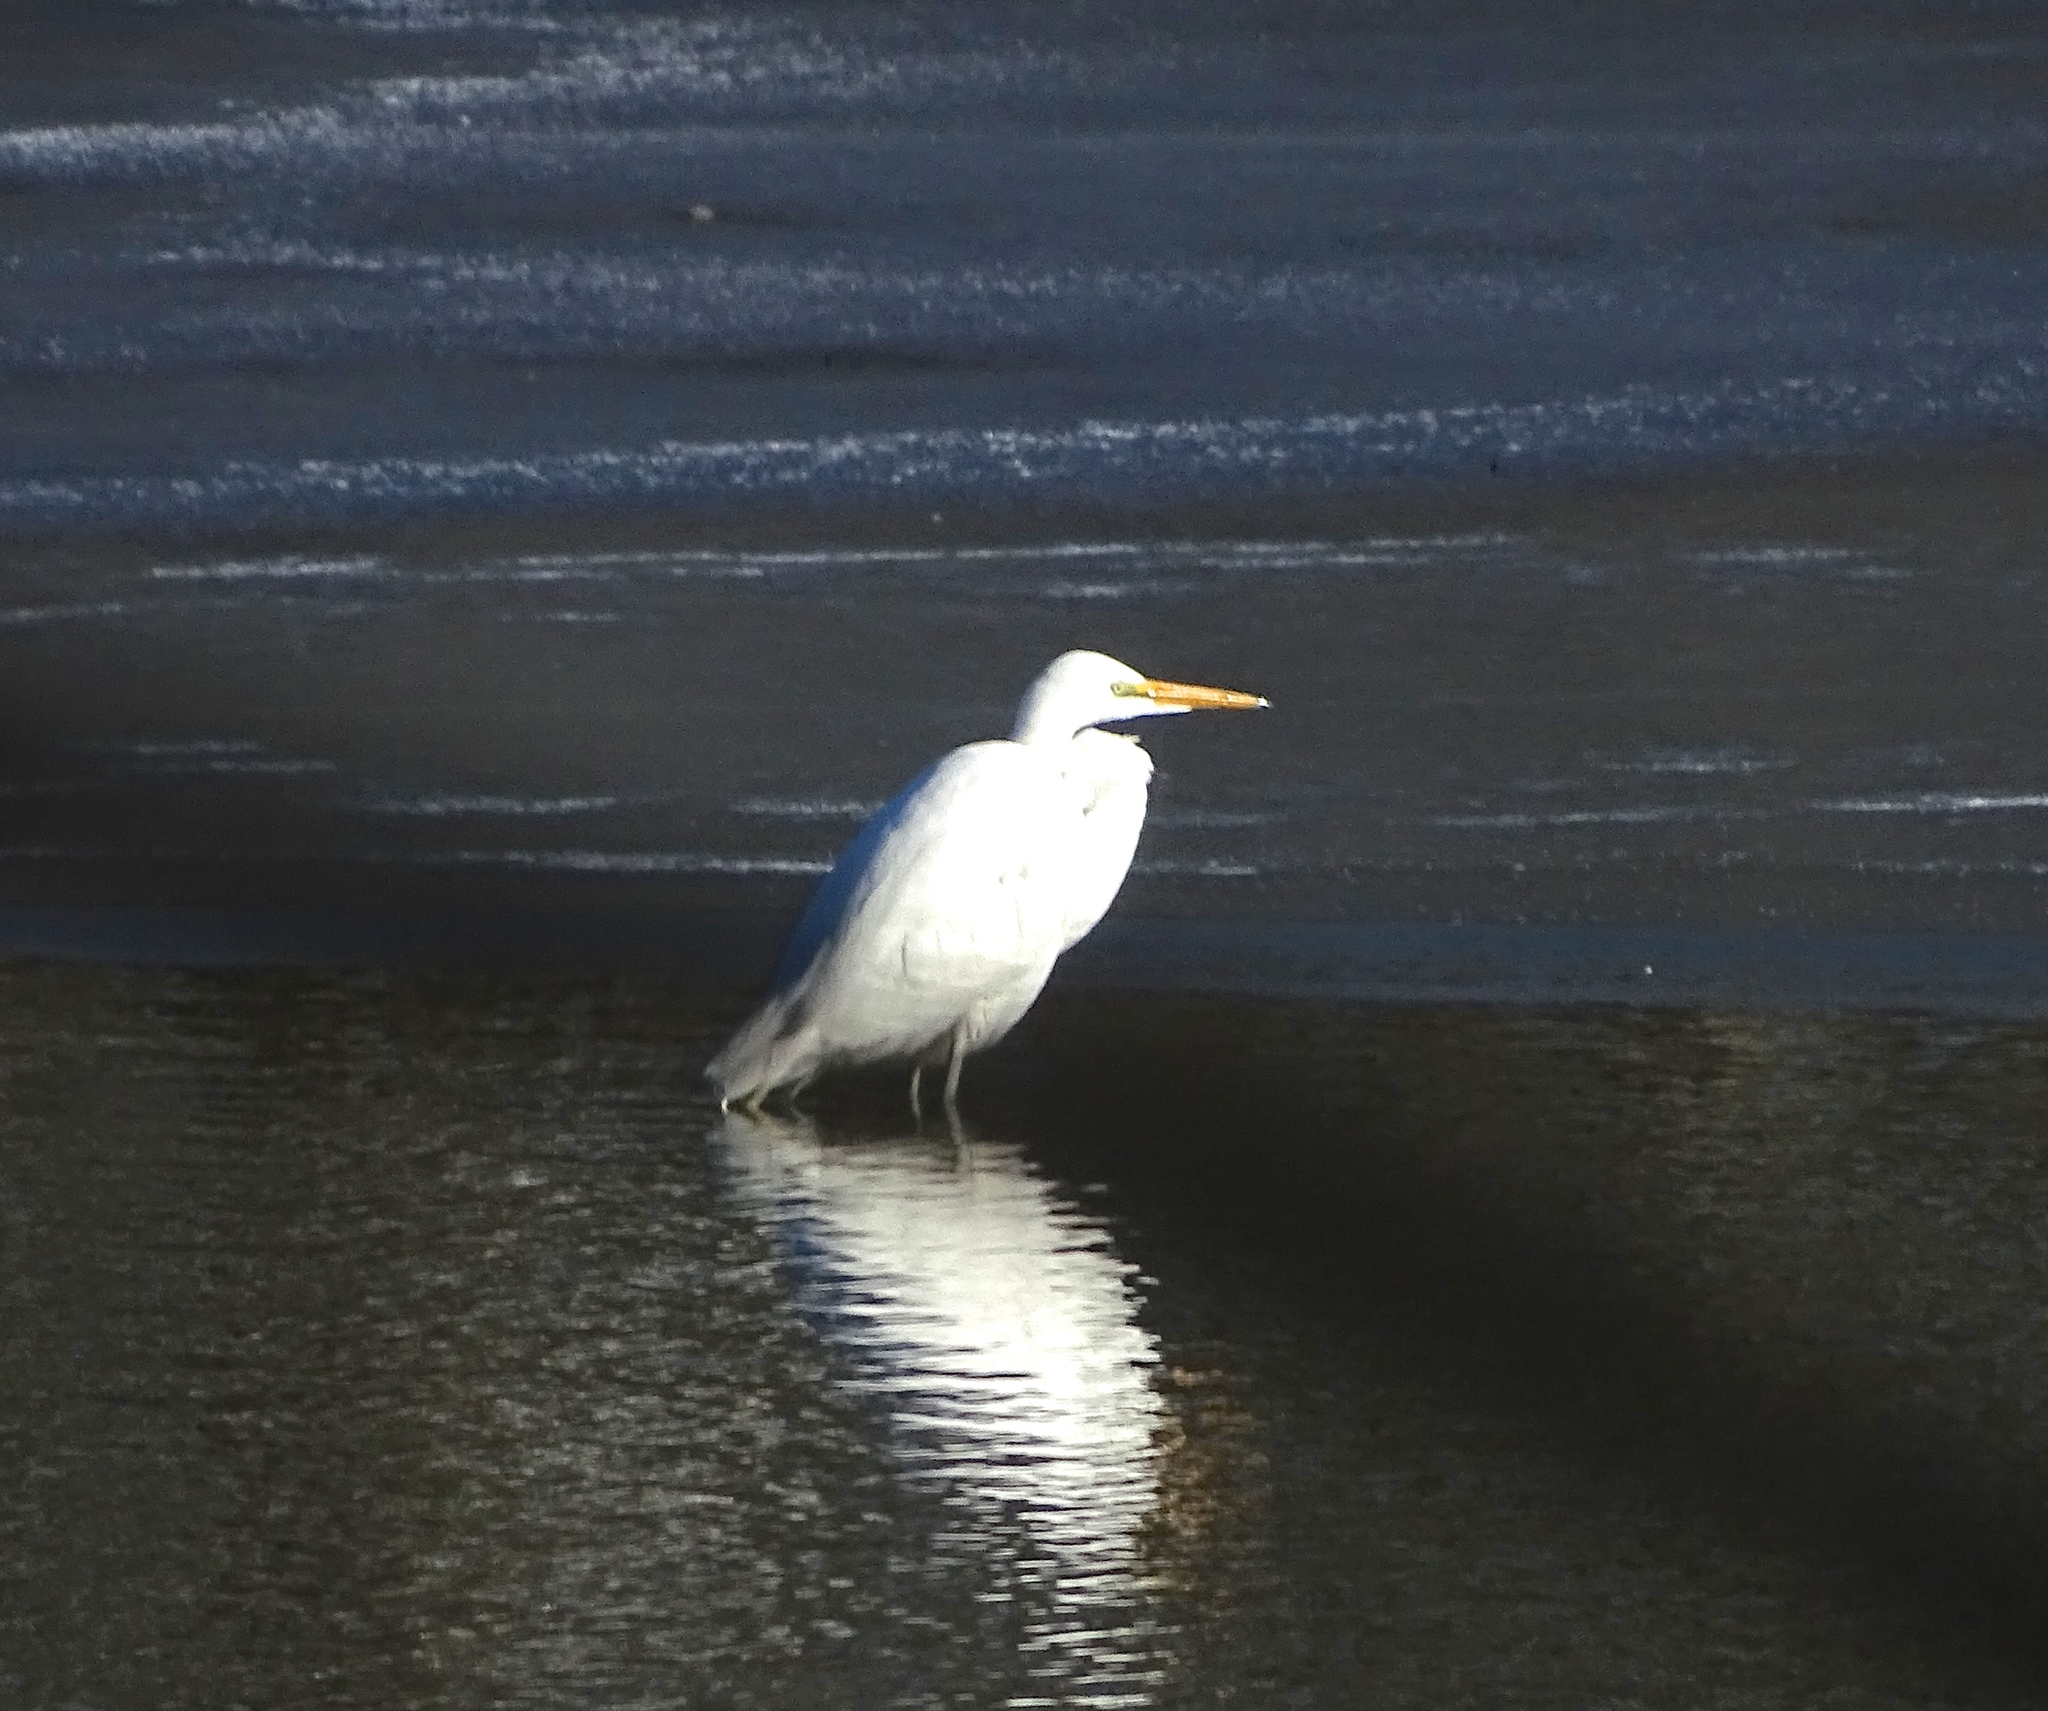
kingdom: Animalia
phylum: Chordata
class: Aves
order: Pelecaniformes
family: Ardeidae
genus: Ardea
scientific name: Ardea alba
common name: Great egret
